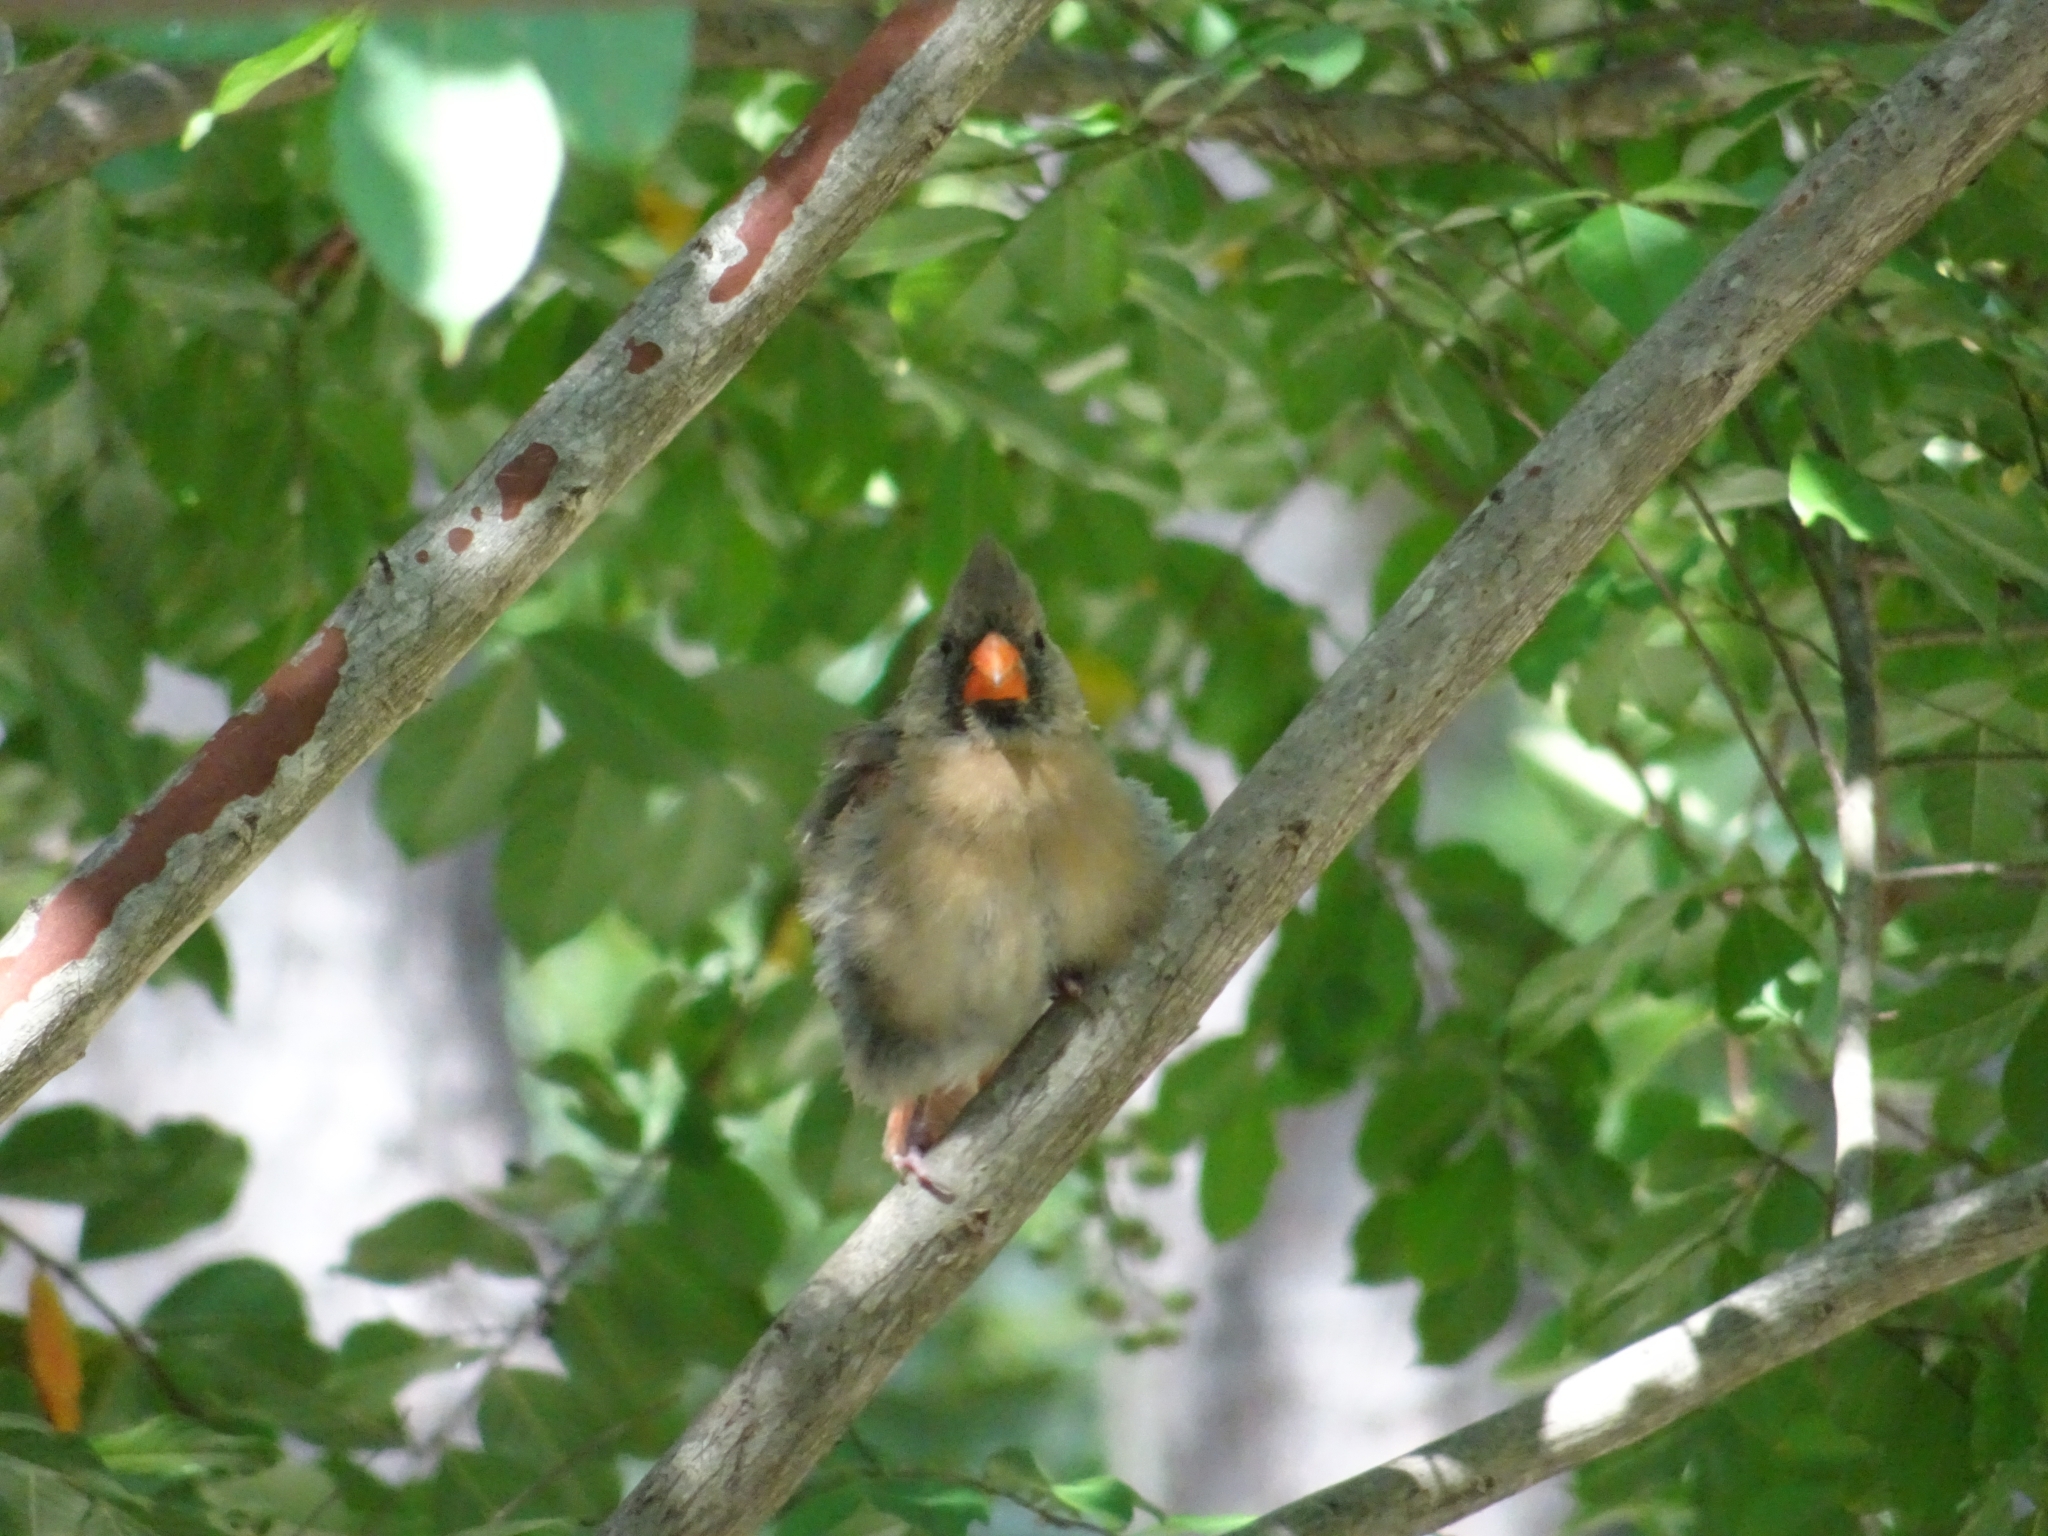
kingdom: Animalia
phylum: Chordata
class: Aves
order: Passeriformes
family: Cardinalidae
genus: Cardinalis
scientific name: Cardinalis cardinalis
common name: Northern cardinal
